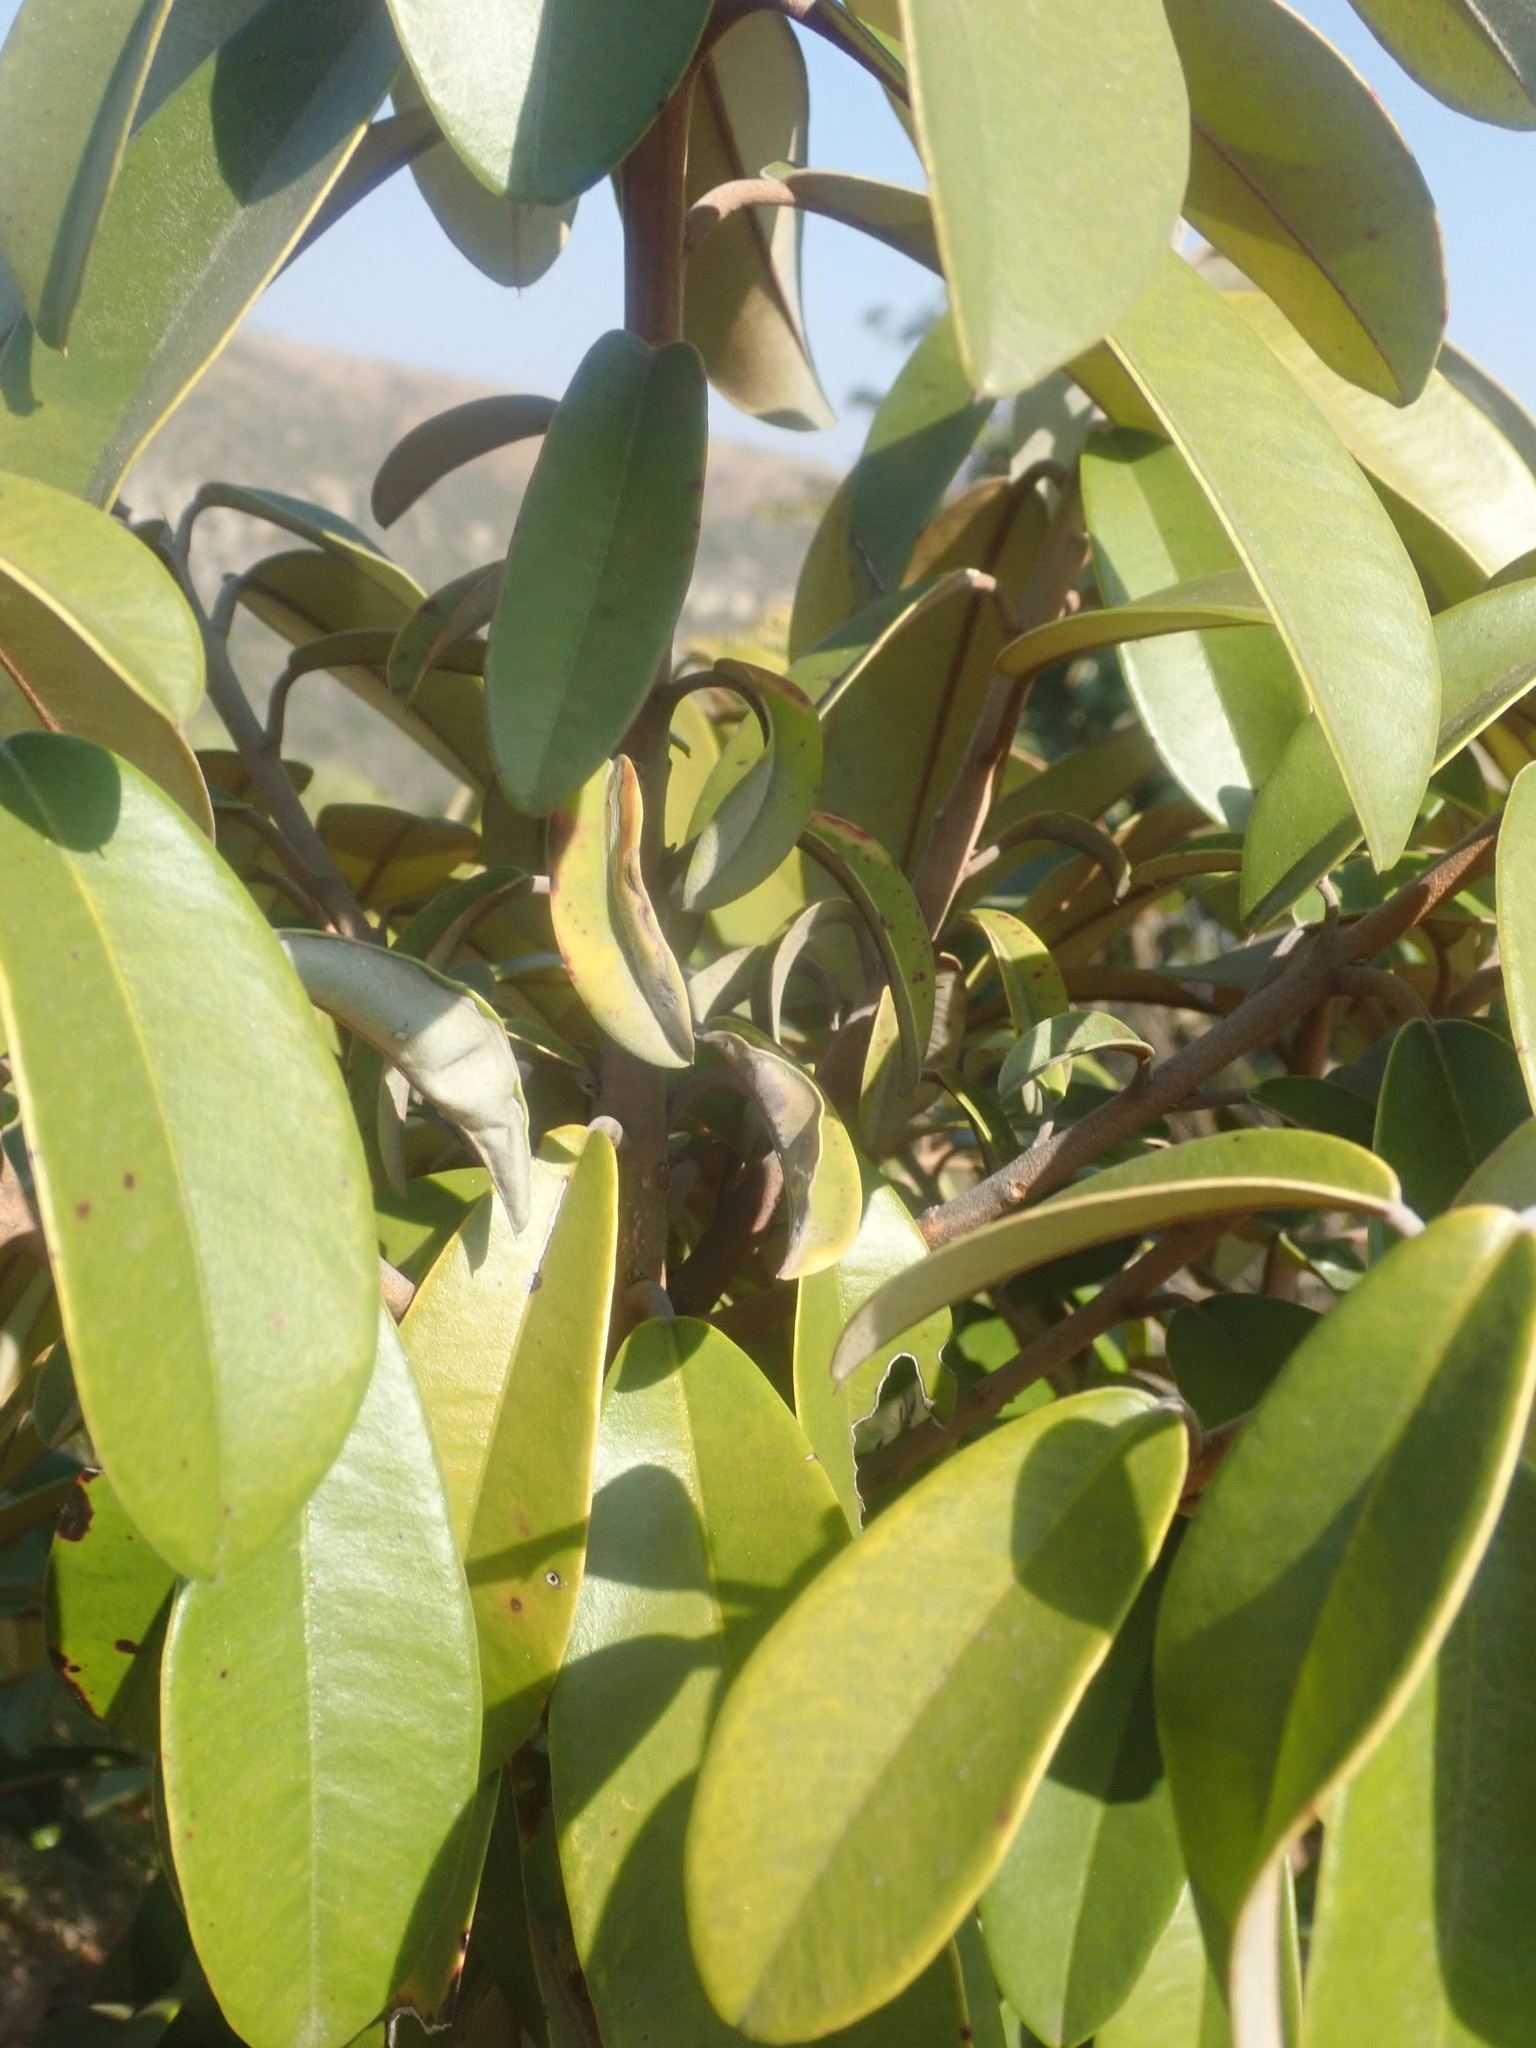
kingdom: Plantae
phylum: Tracheophyta
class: Magnoliopsida
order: Ericales
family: Sapotaceae
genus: Englerophytum
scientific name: Englerophytum magalismontanum
